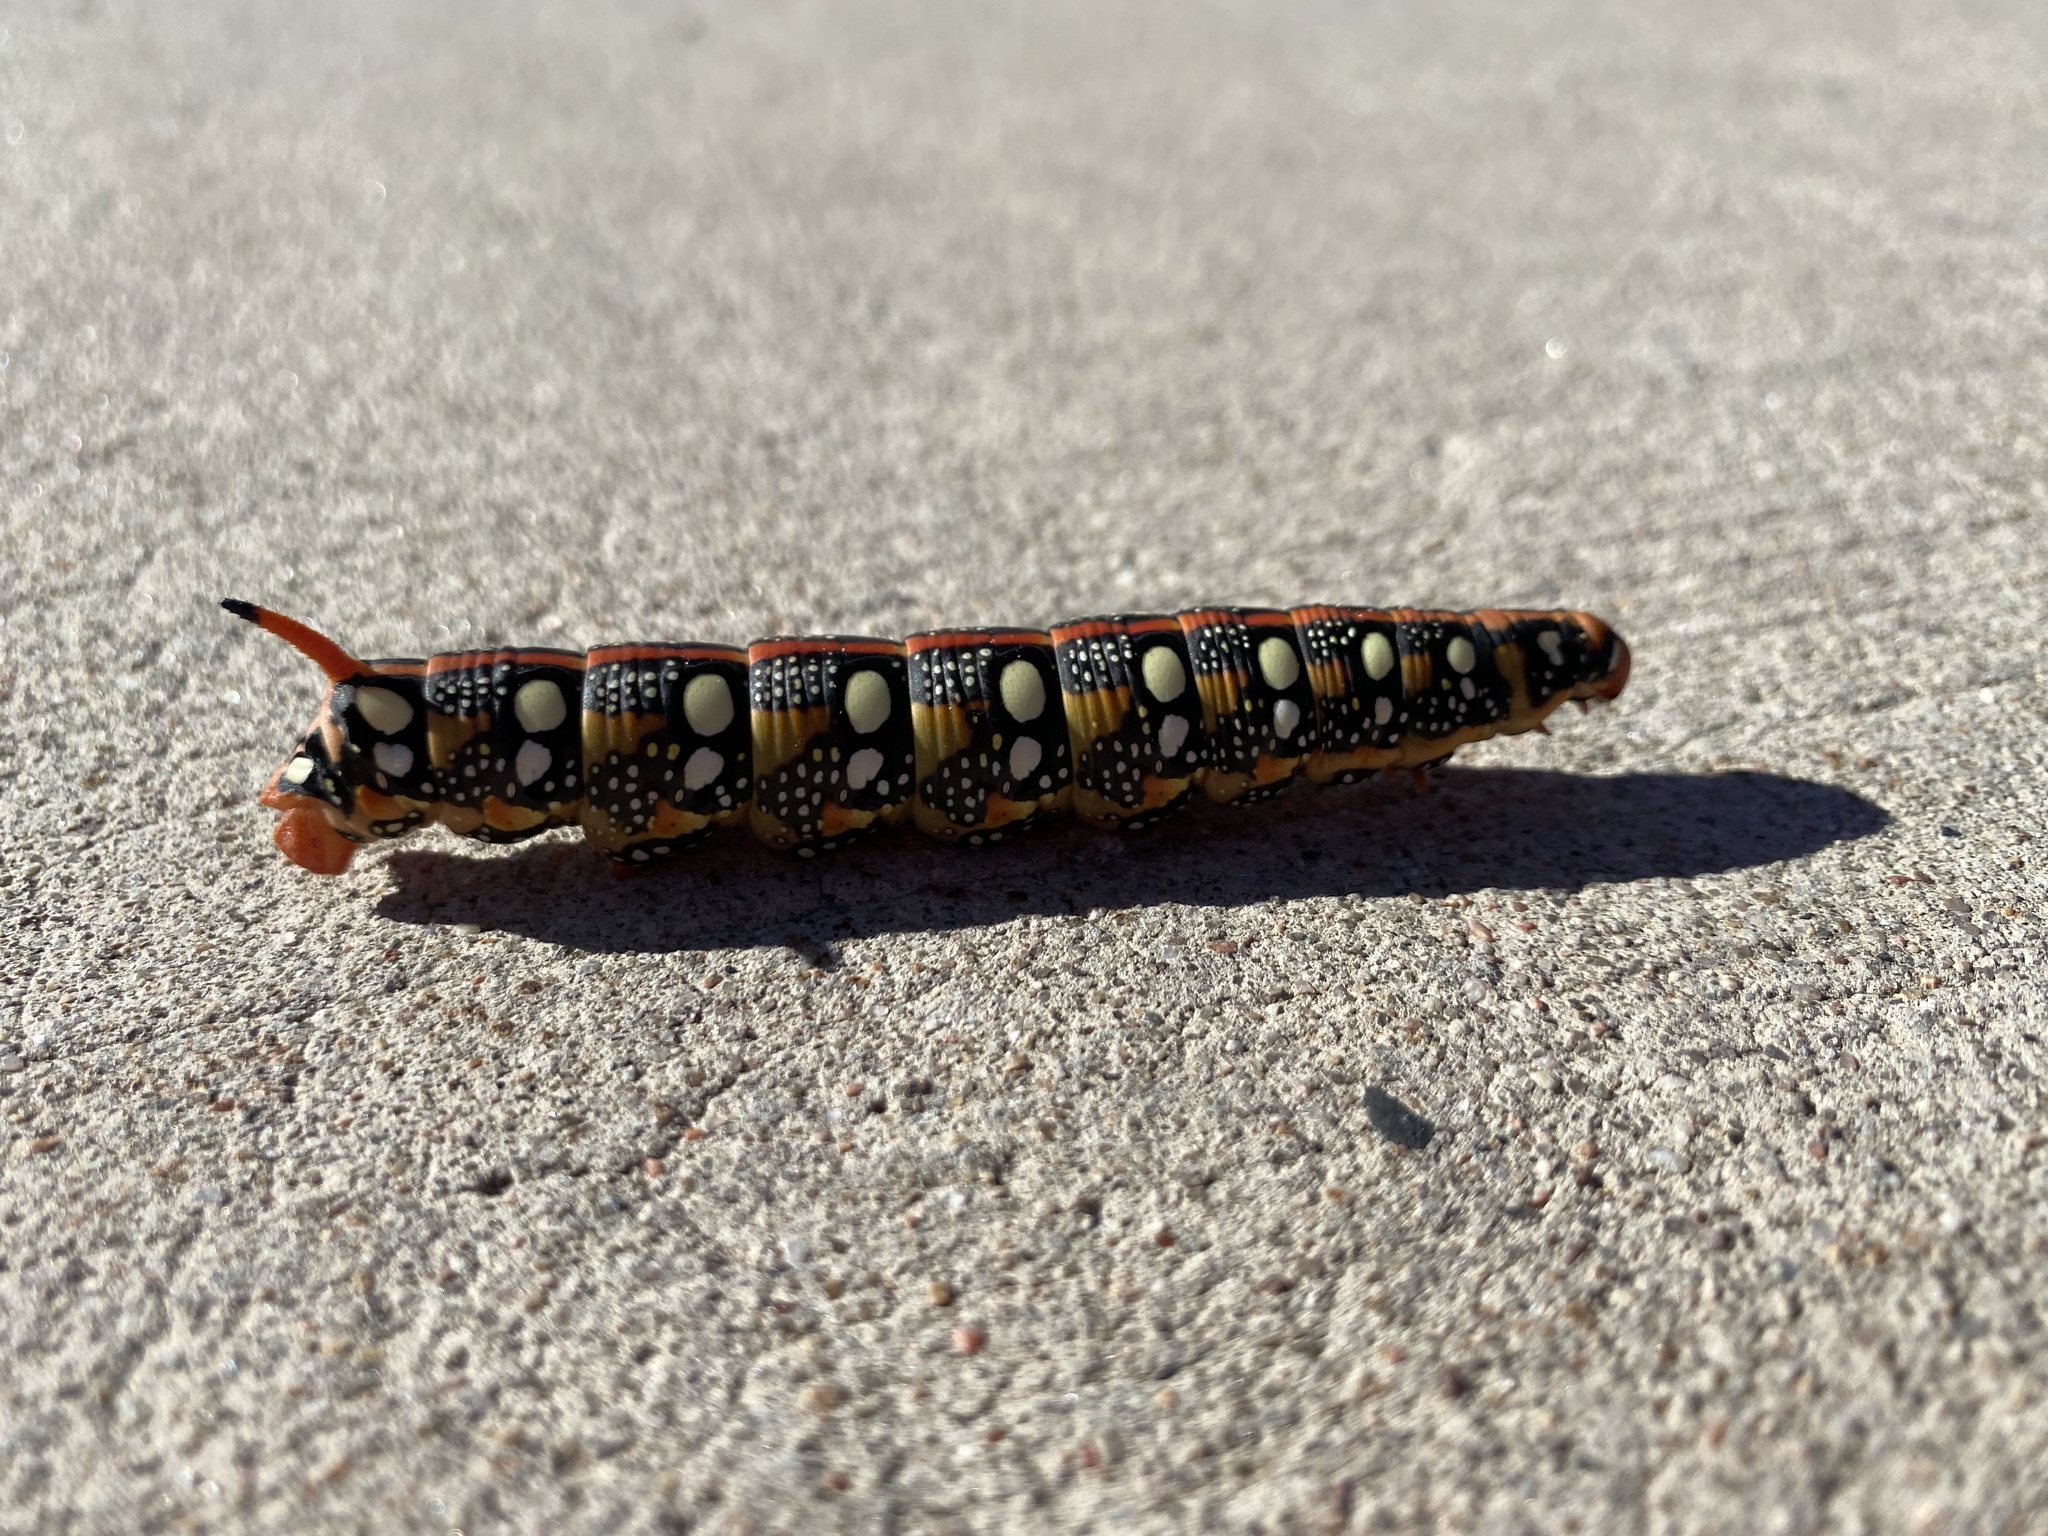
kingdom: Animalia
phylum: Arthropoda
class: Insecta
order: Lepidoptera
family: Sphingidae
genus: Hyles
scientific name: Hyles euphorbiae
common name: Spurge hawk-moth
